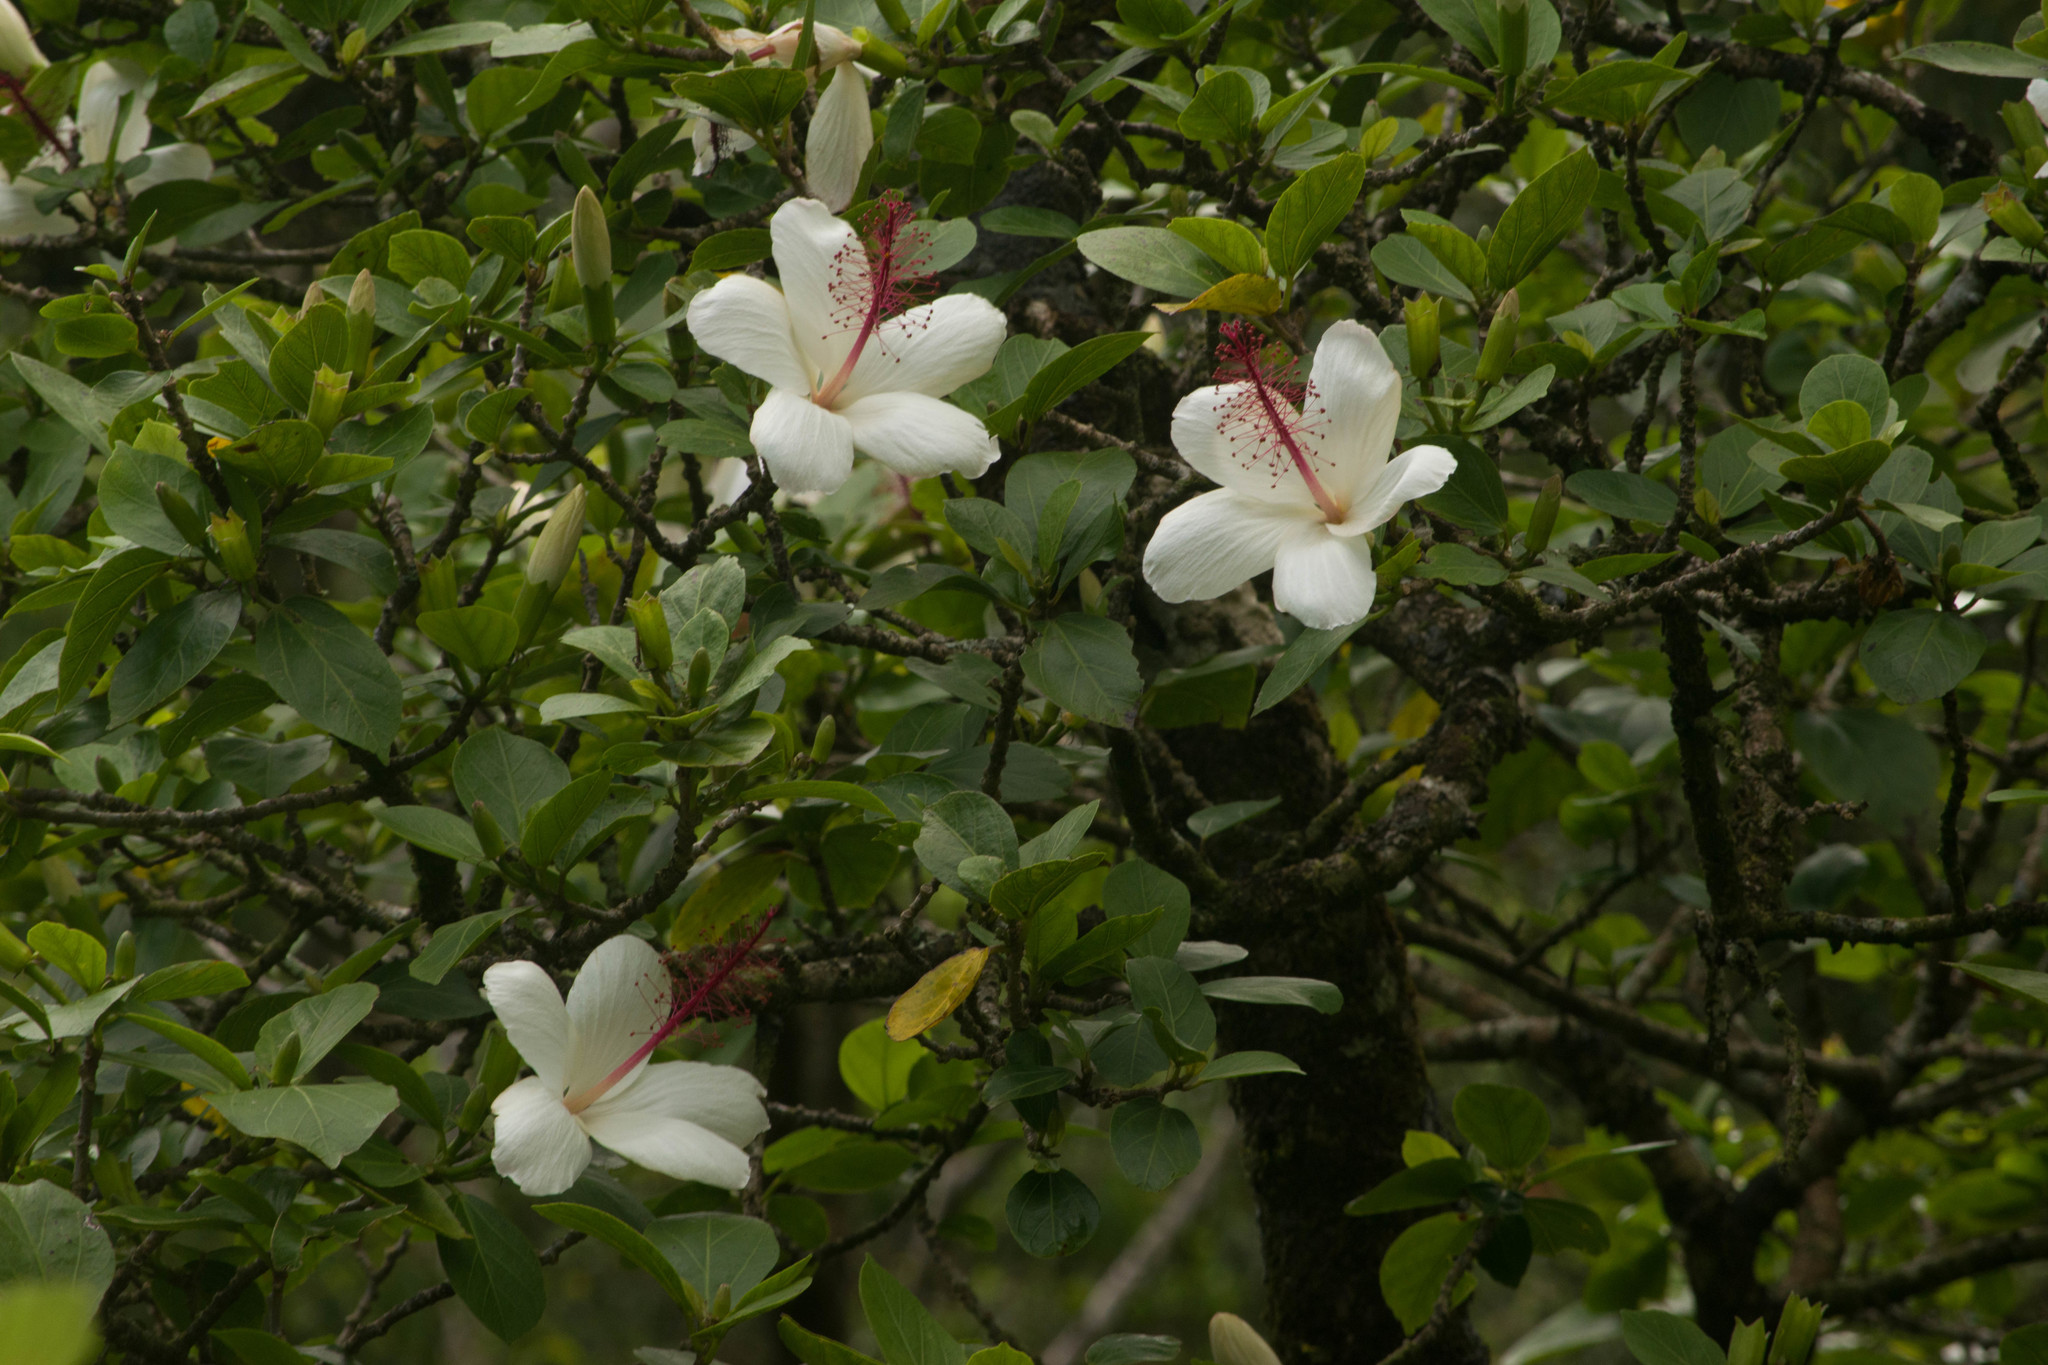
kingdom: Plantae
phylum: Tracheophyta
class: Magnoliopsida
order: Malvales
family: Malvaceae
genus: Hibiscus
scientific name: Hibiscus arnottianus
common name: White molokai hibiscus
